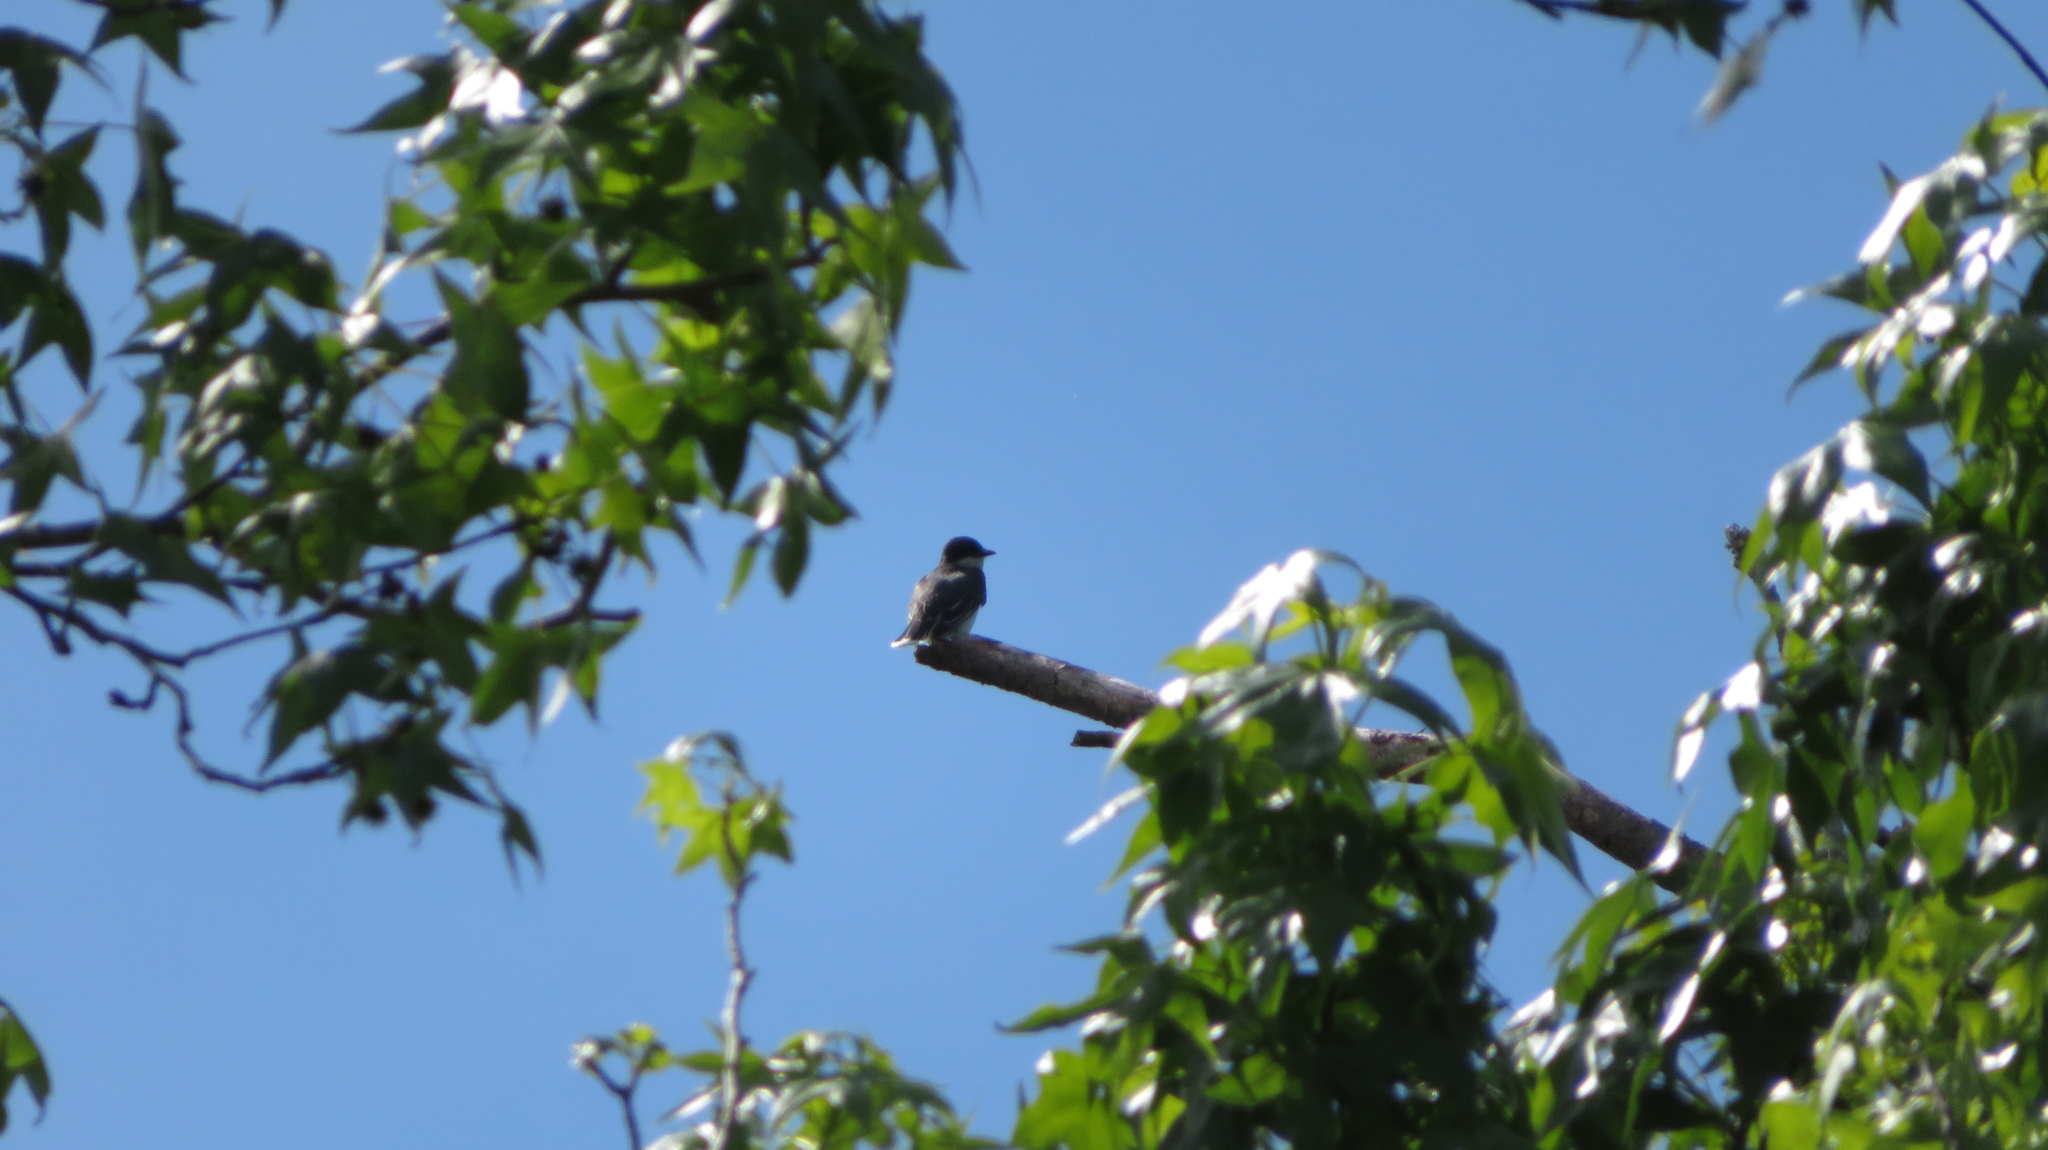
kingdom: Animalia
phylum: Chordata
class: Aves
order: Passeriformes
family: Tyrannidae
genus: Tyrannus
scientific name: Tyrannus tyrannus
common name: Eastern kingbird
